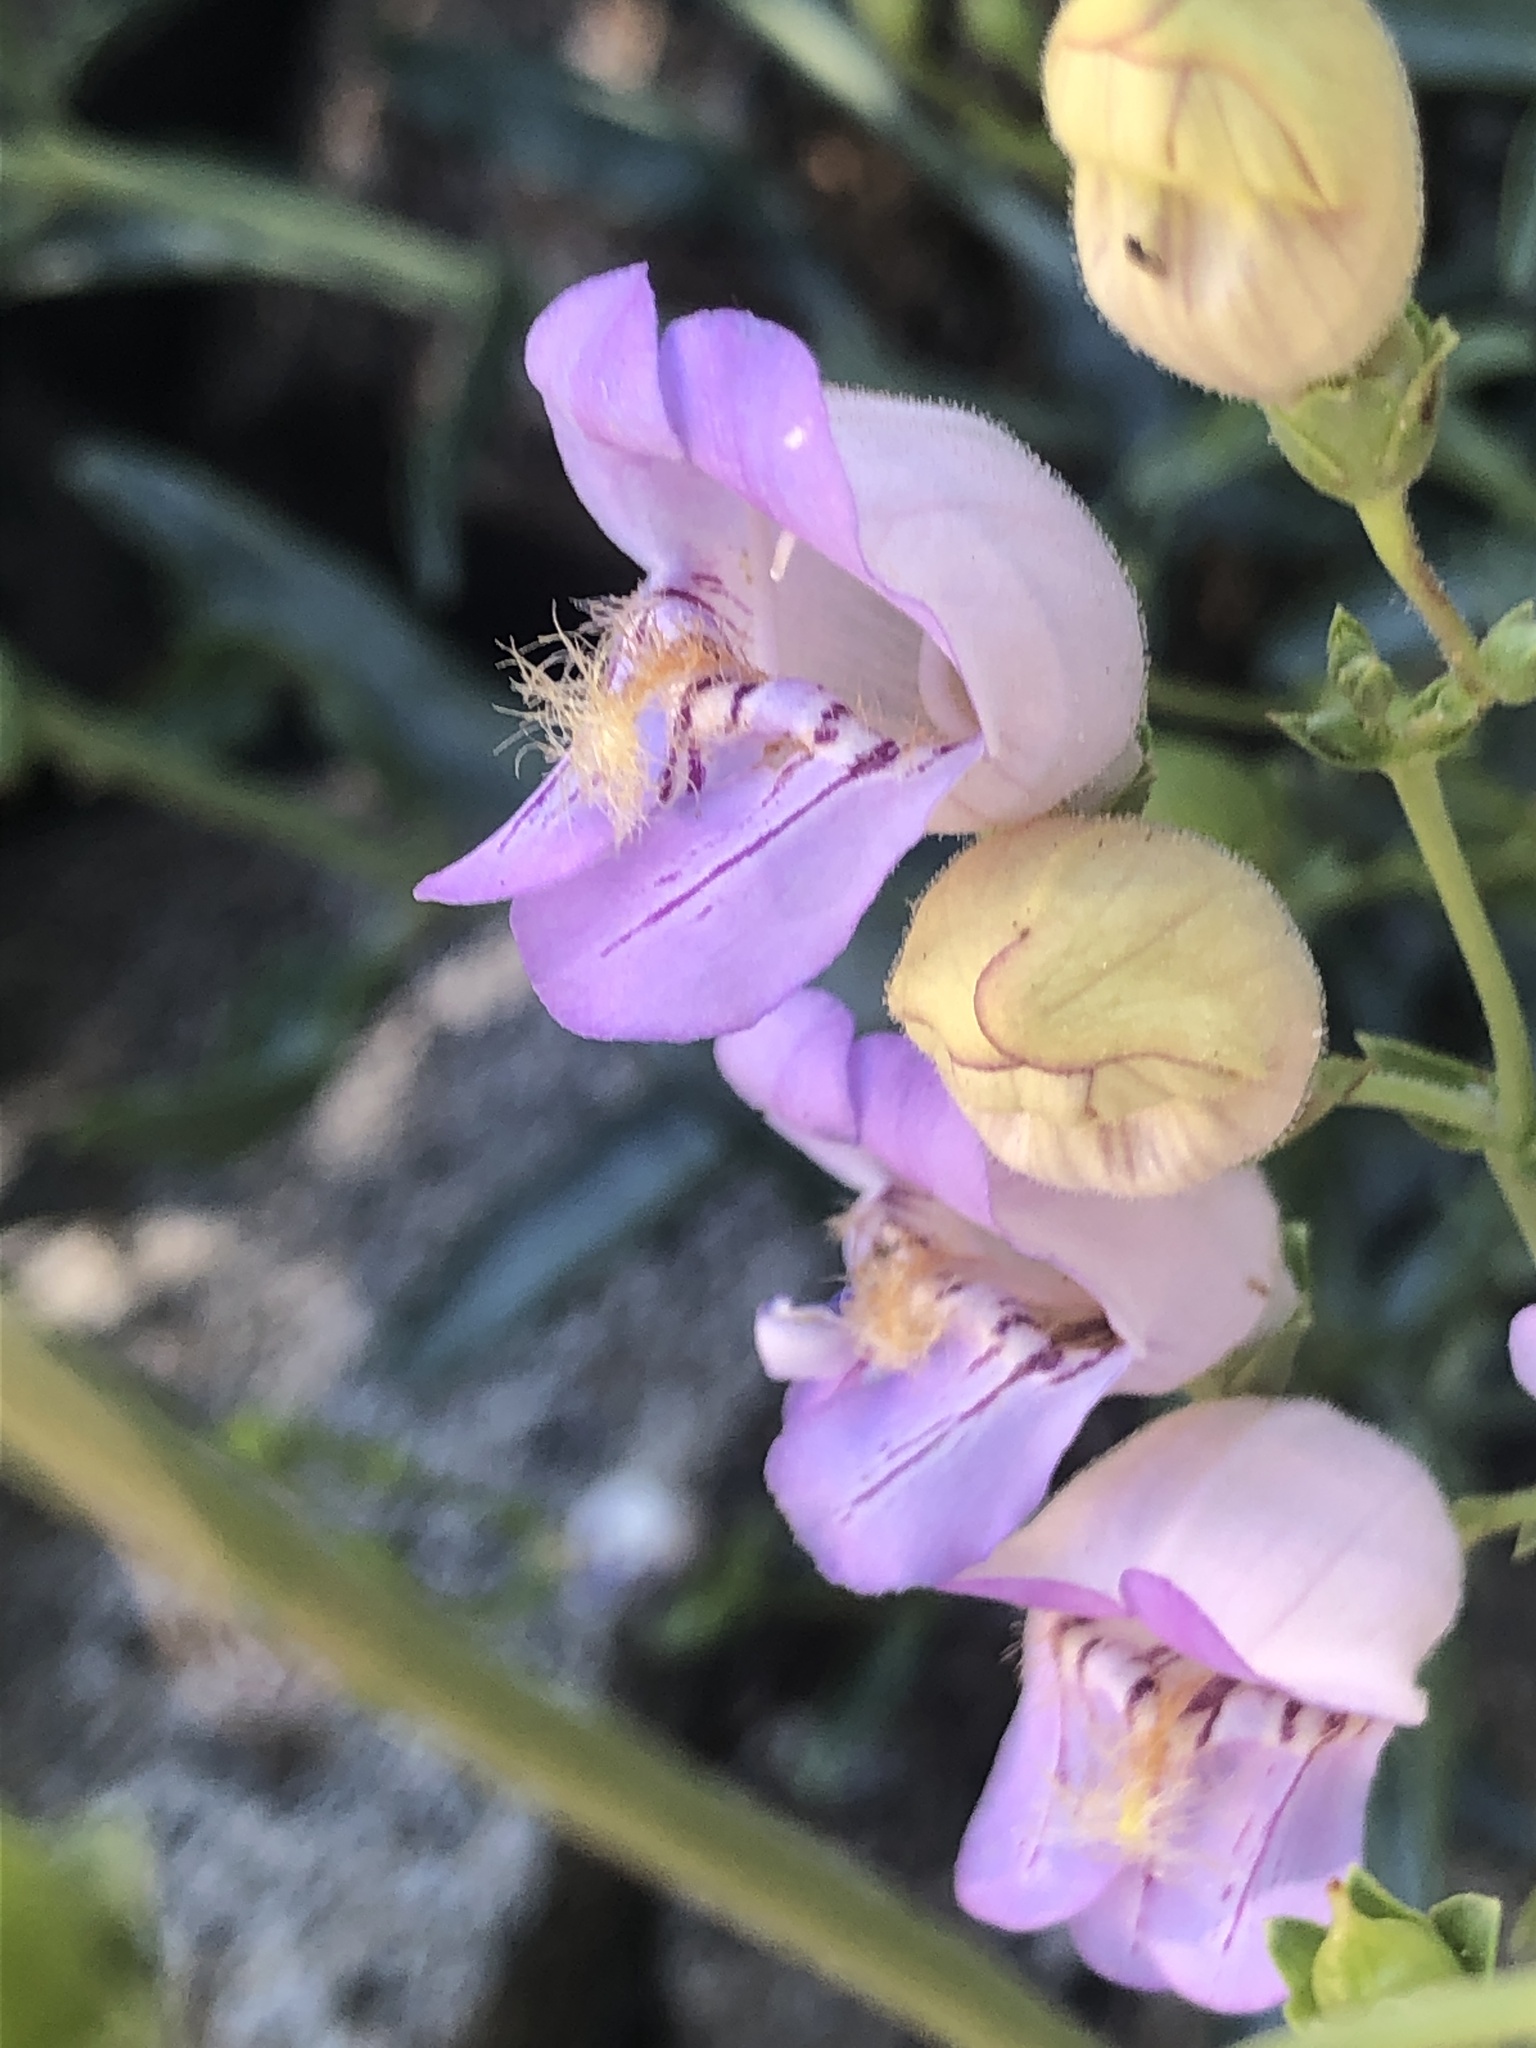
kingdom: Plantae
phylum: Tracheophyta
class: Magnoliopsida
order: Lamiales
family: Plantaginaceae
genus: Penstemon
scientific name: Penstemon grinnellii
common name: Grinnell's beardtongue
